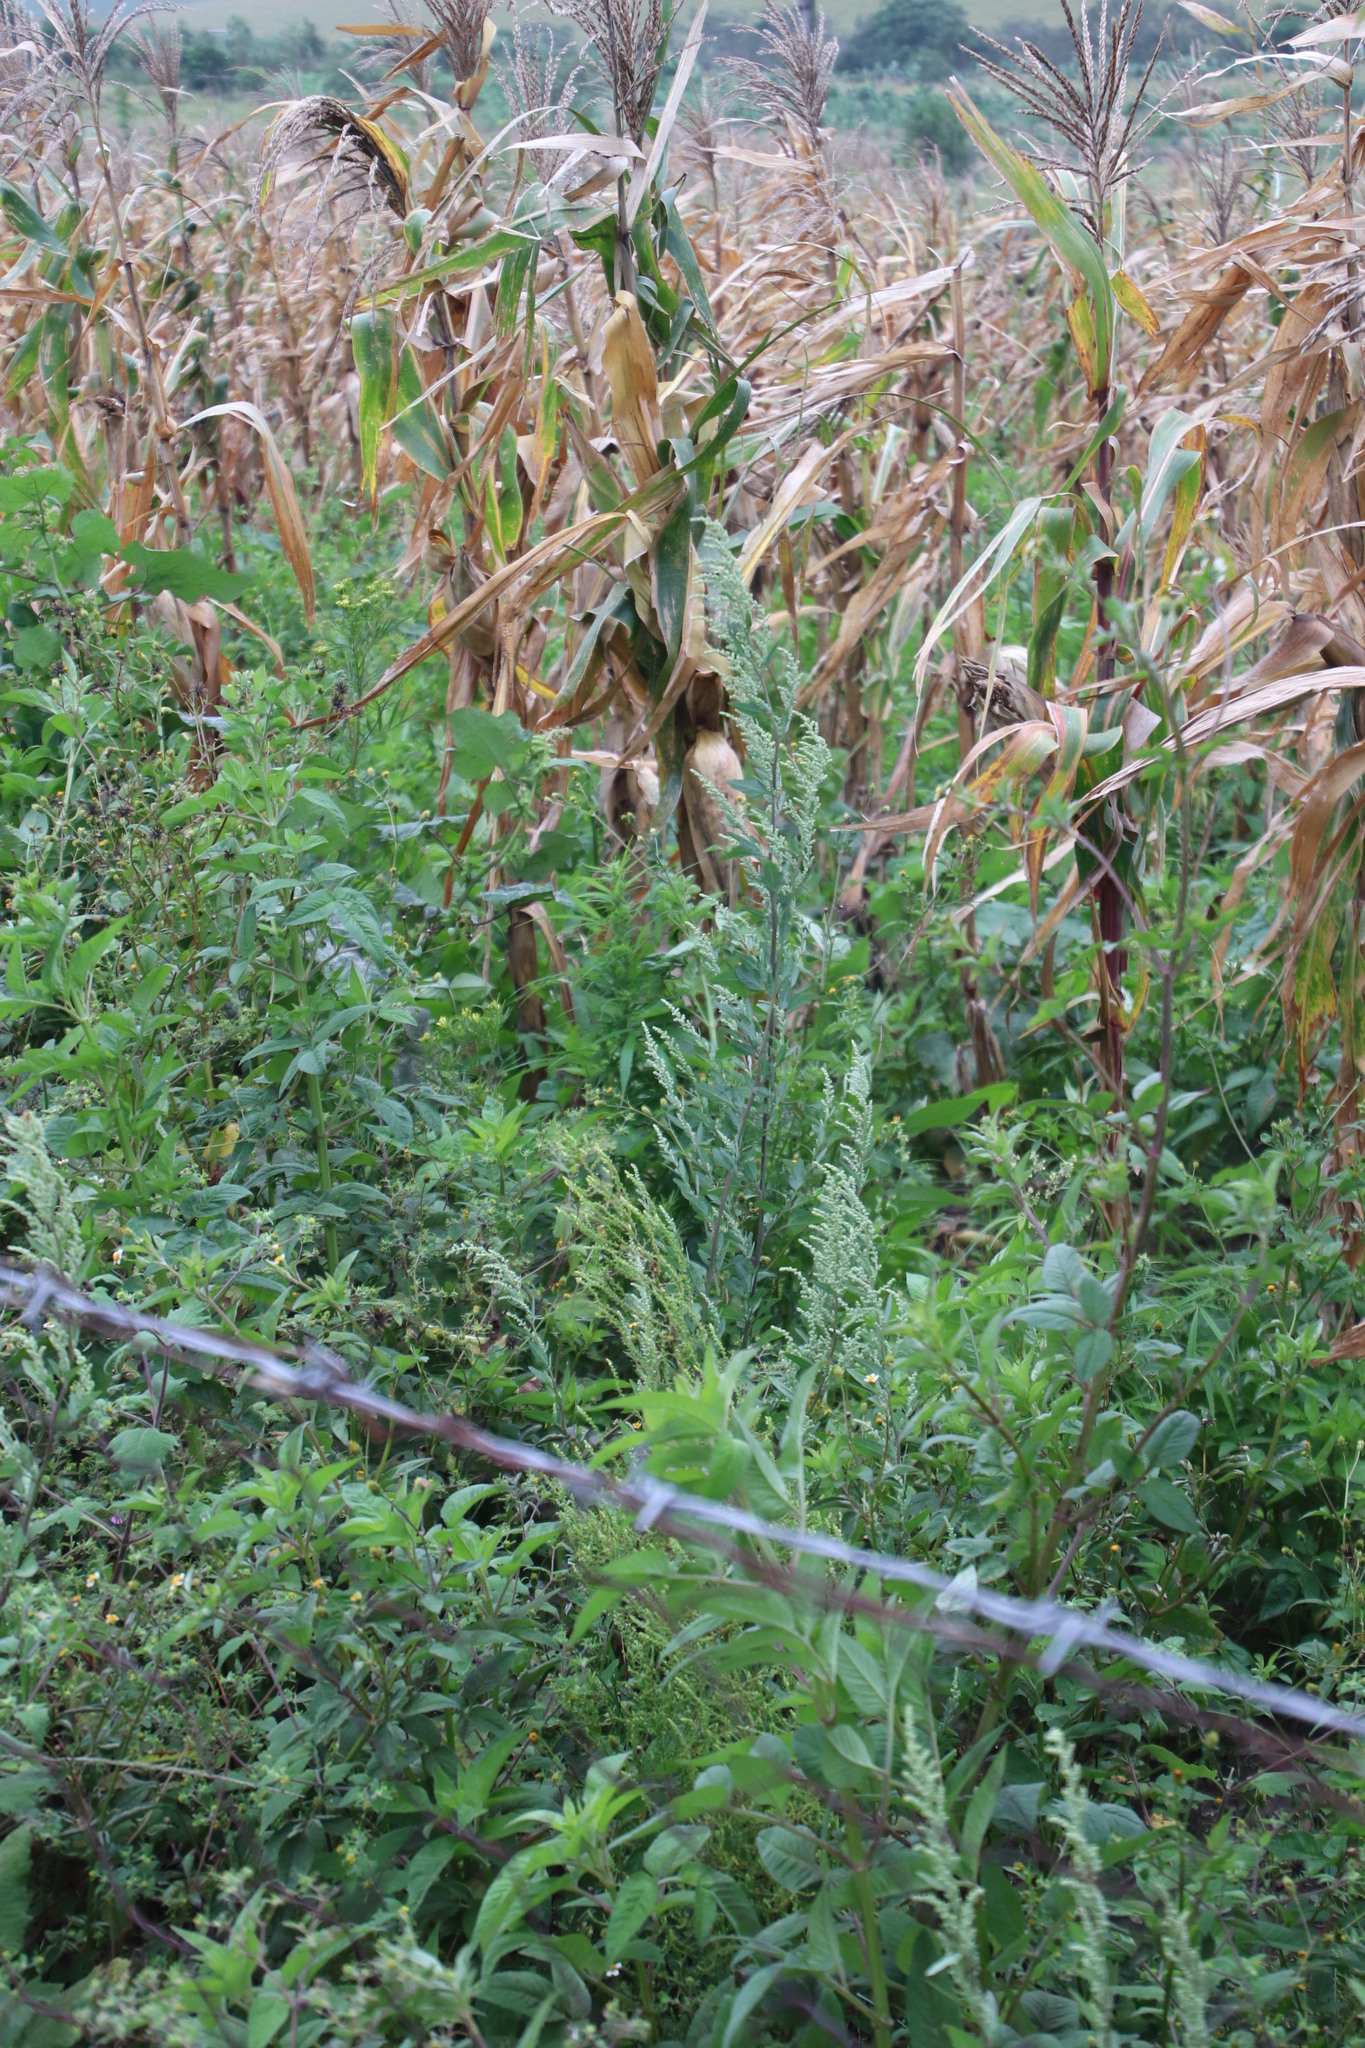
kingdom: Plantae
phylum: Tracheophyta
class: Magnoliopsida
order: Caryophyllales
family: Amaranthaceae
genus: Chenopodium
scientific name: Chenopodium album
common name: Fat-hen
